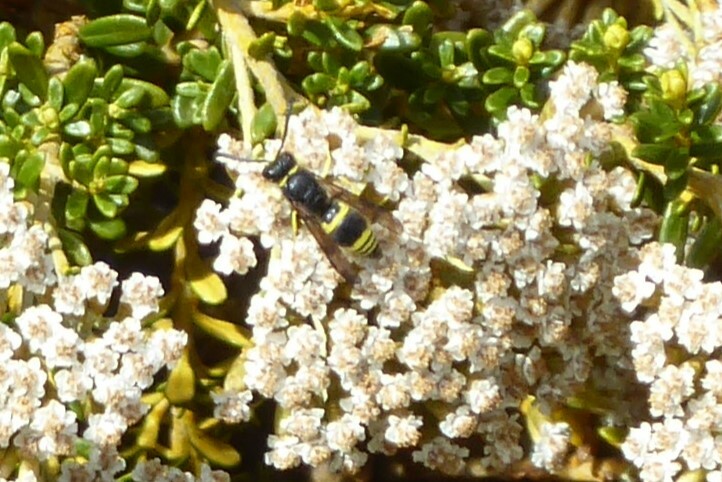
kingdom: Animalia
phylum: Arthropoda
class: Insecta
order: Hymenoptera
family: Vespidae
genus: Ancistrocerus
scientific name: Ancistrocerus gazella
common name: European tube wasp
